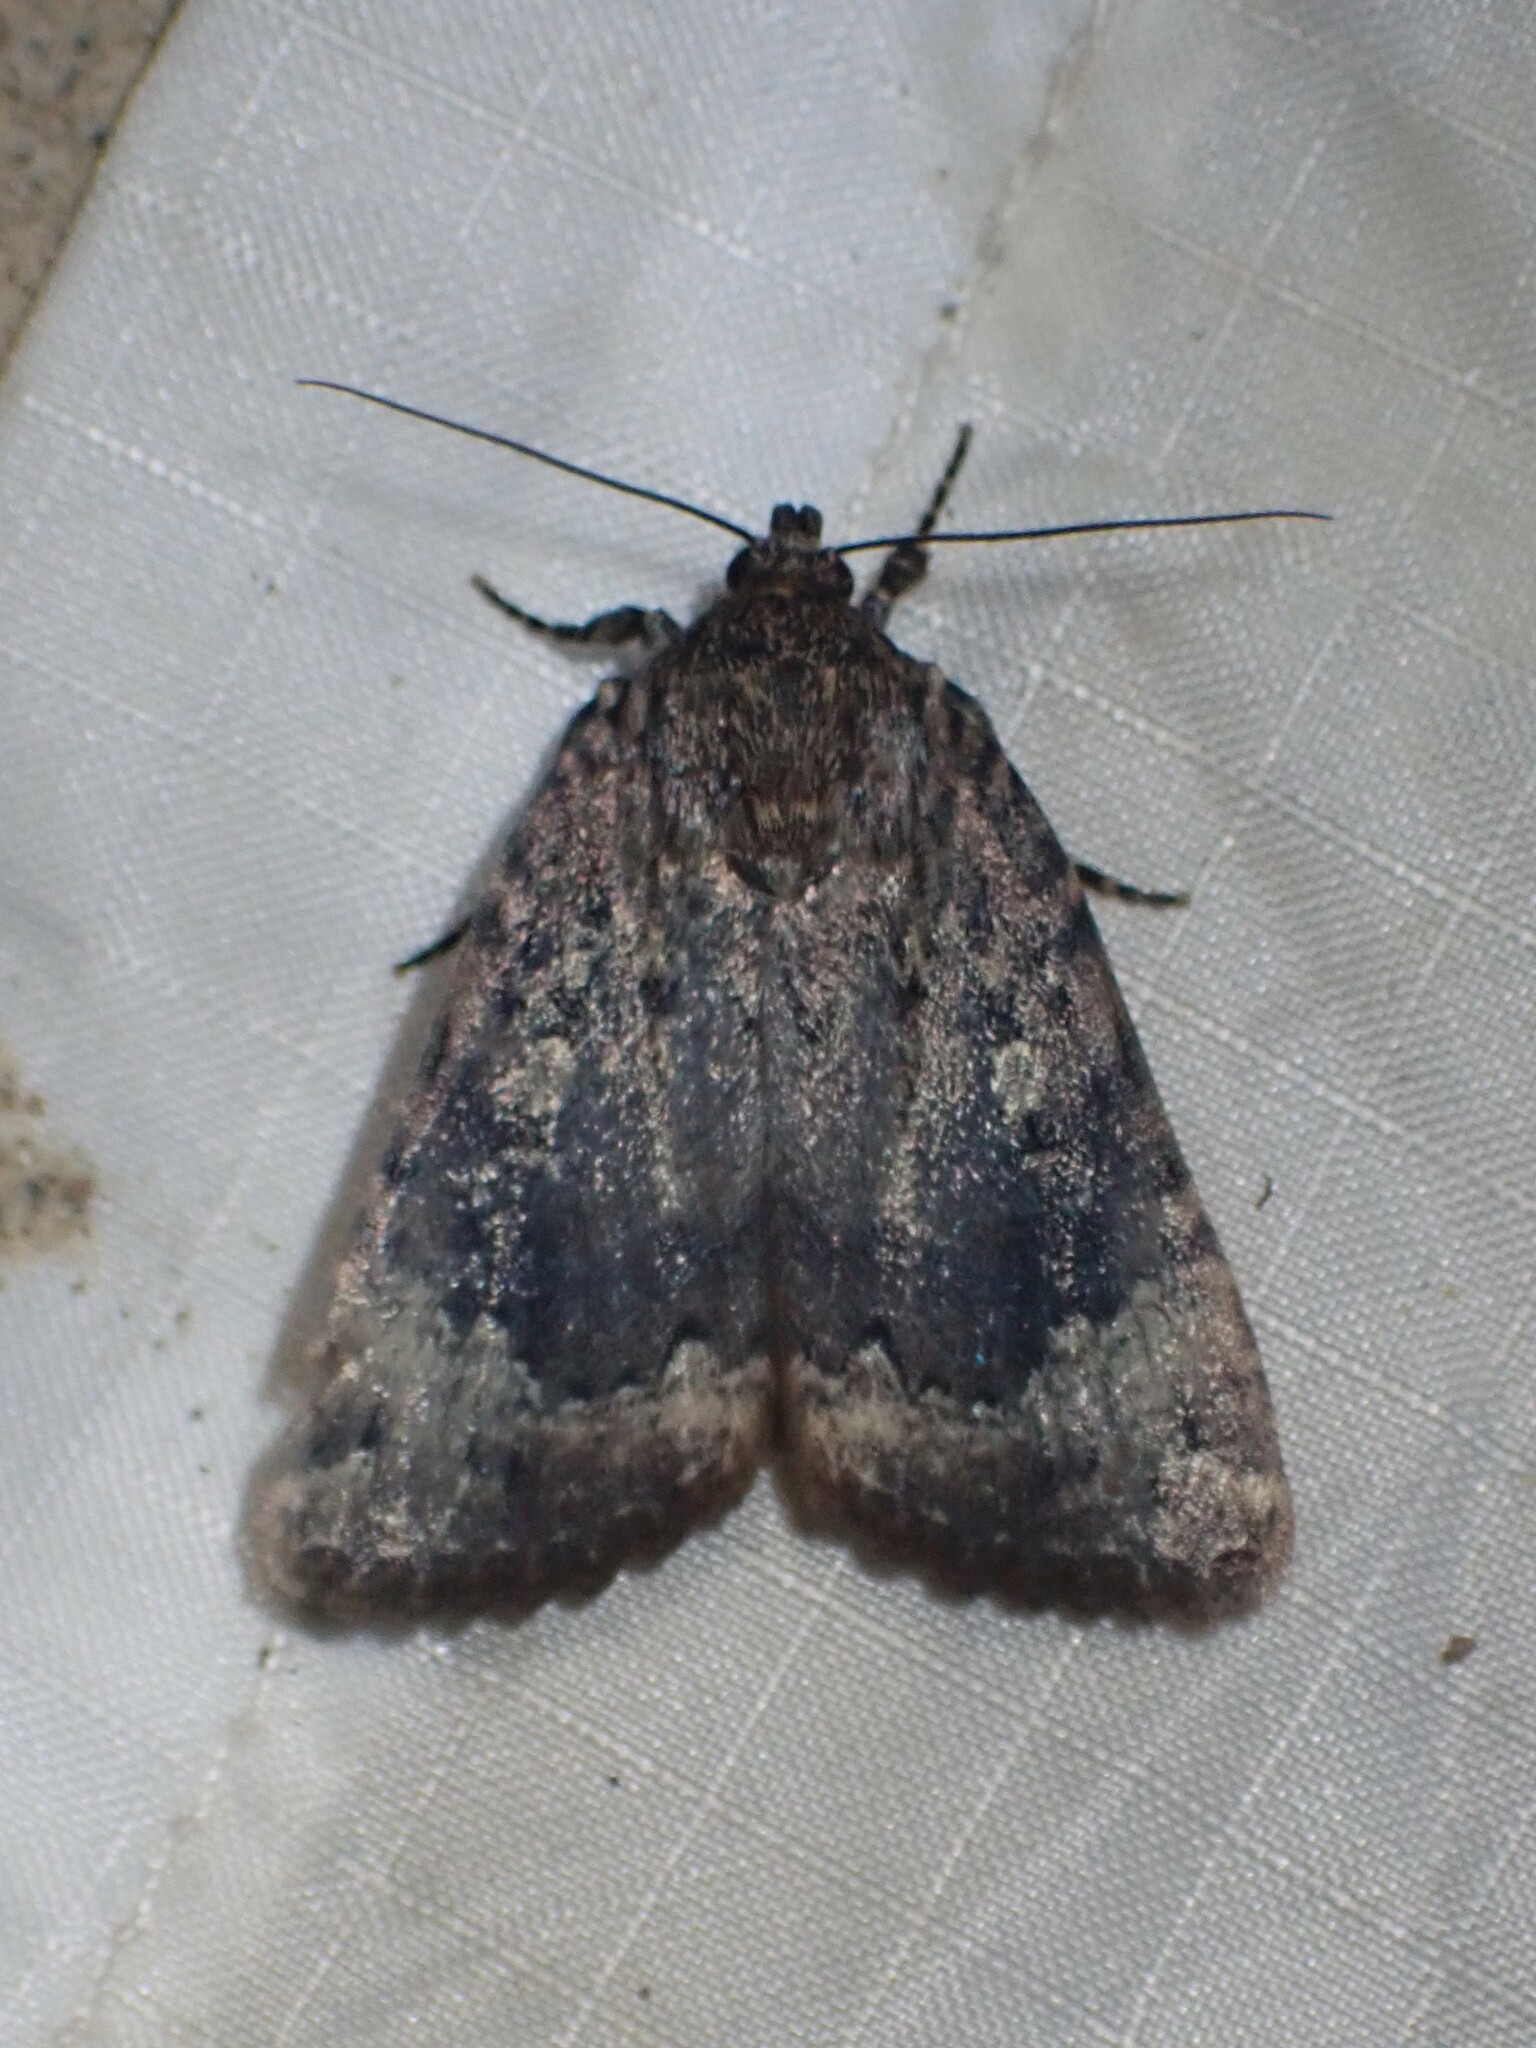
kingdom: Animalia
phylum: Arthropoda
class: Insecta
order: Lepidoptera
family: Noctuidae
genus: Amphipyra
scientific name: Amphipyra pyramidoides
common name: American copper underwing
